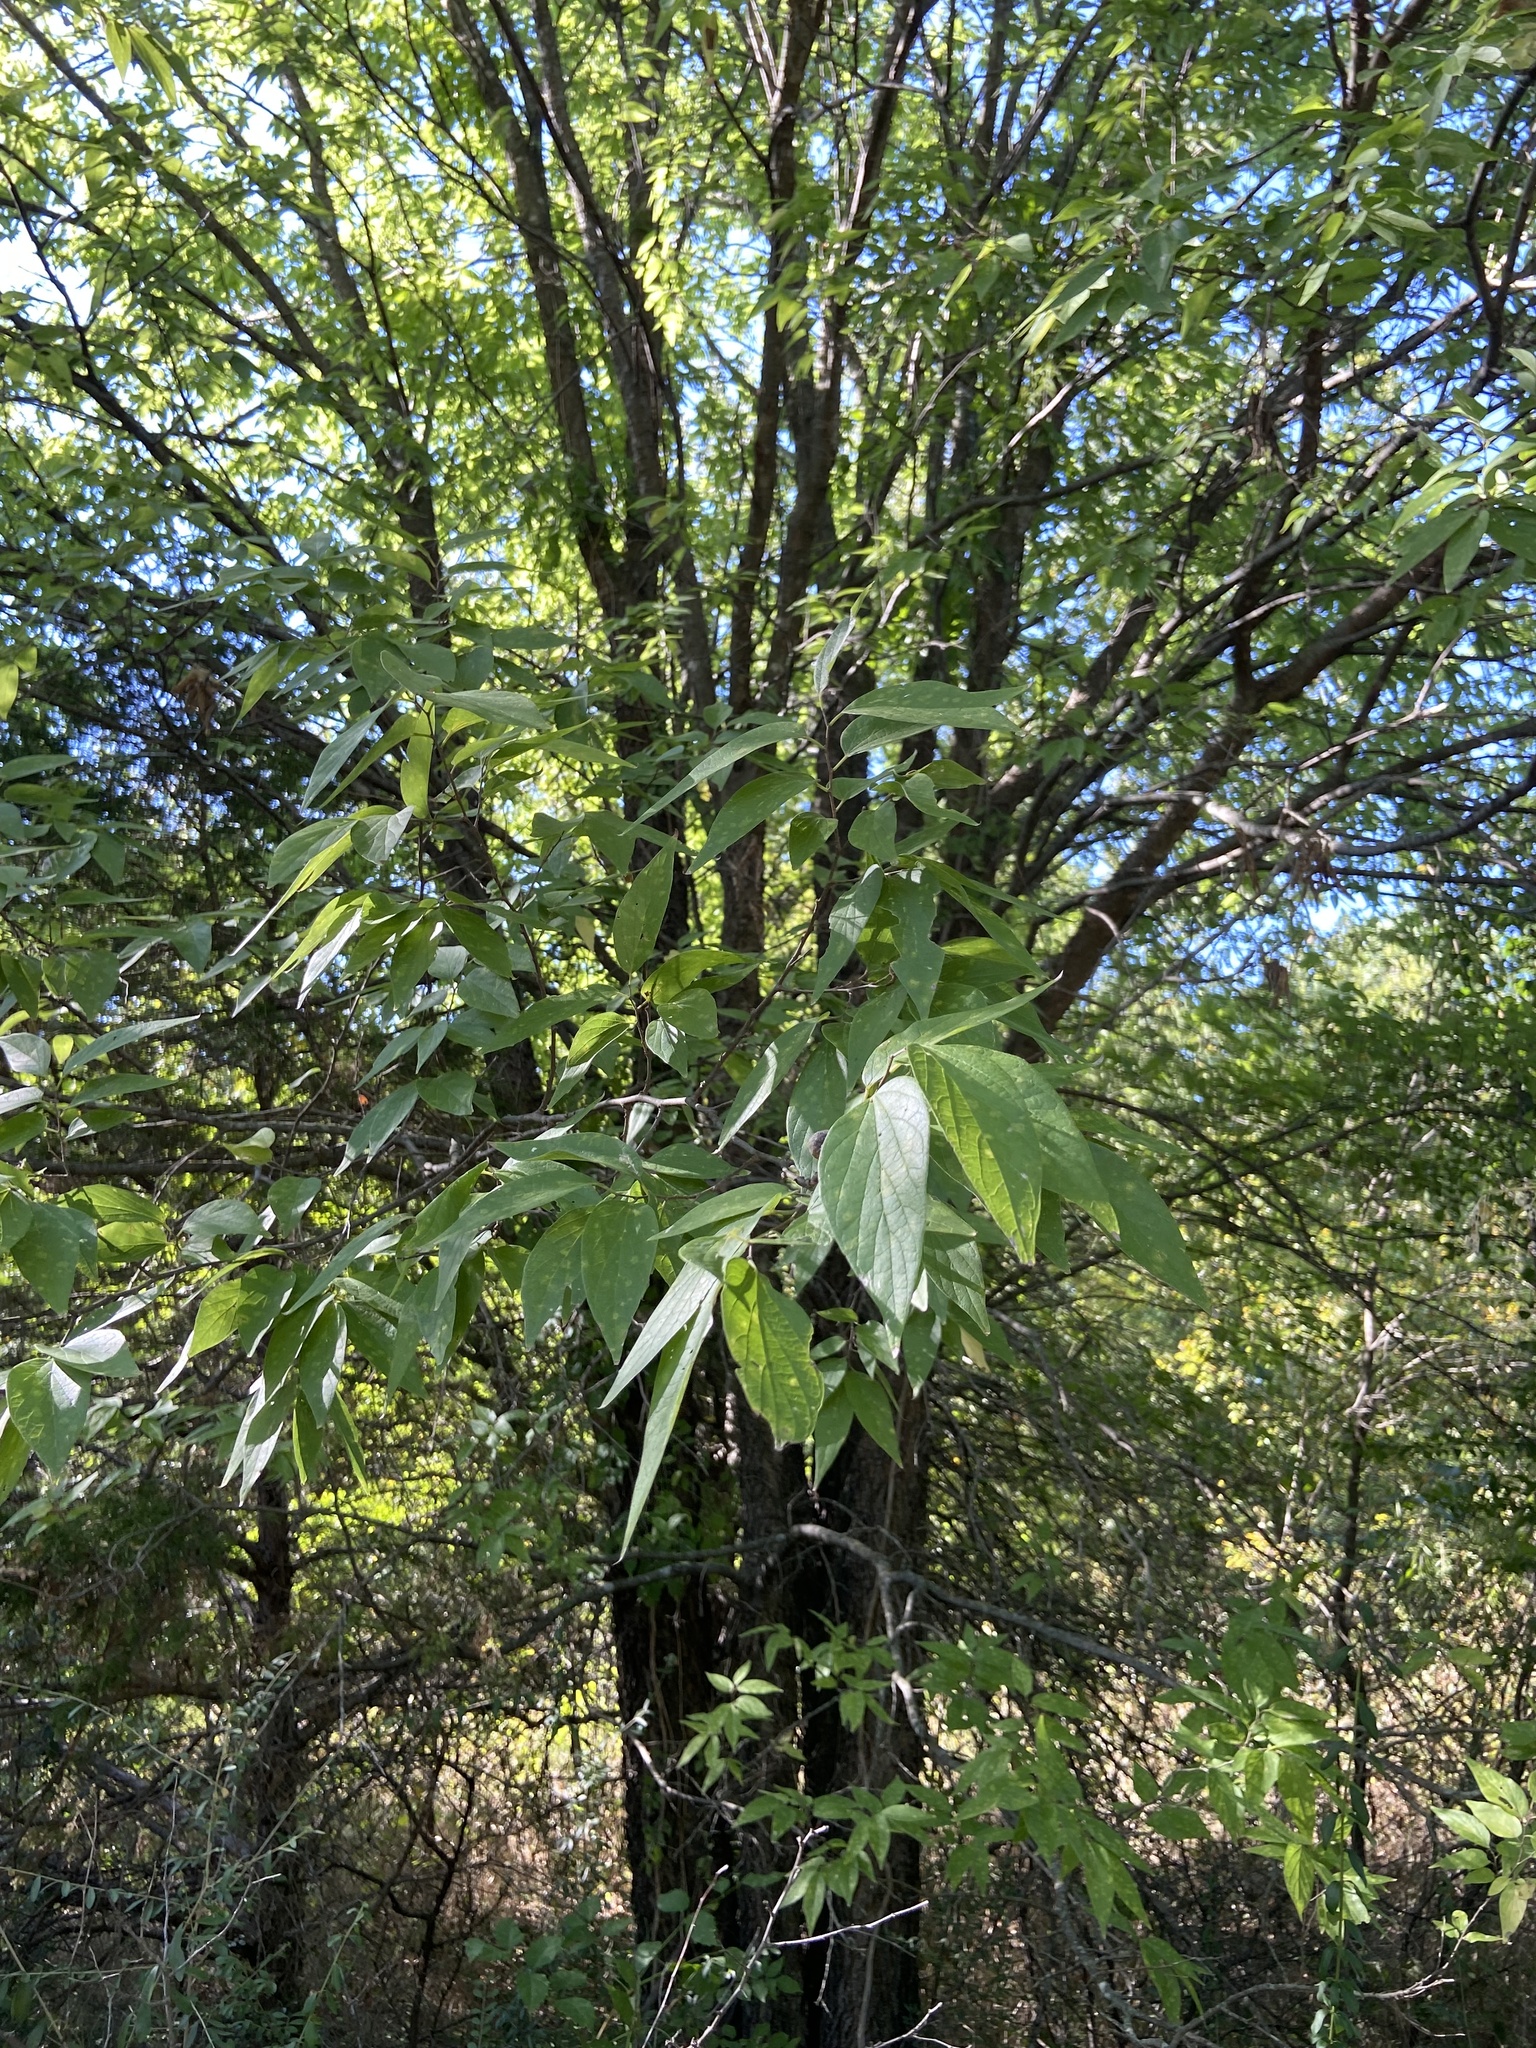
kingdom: Animalia
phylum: Arthropoda
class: Insecta
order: Hemiptera
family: Aphalaridae
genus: Pachypsylla
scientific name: Pachypsylla venusta
